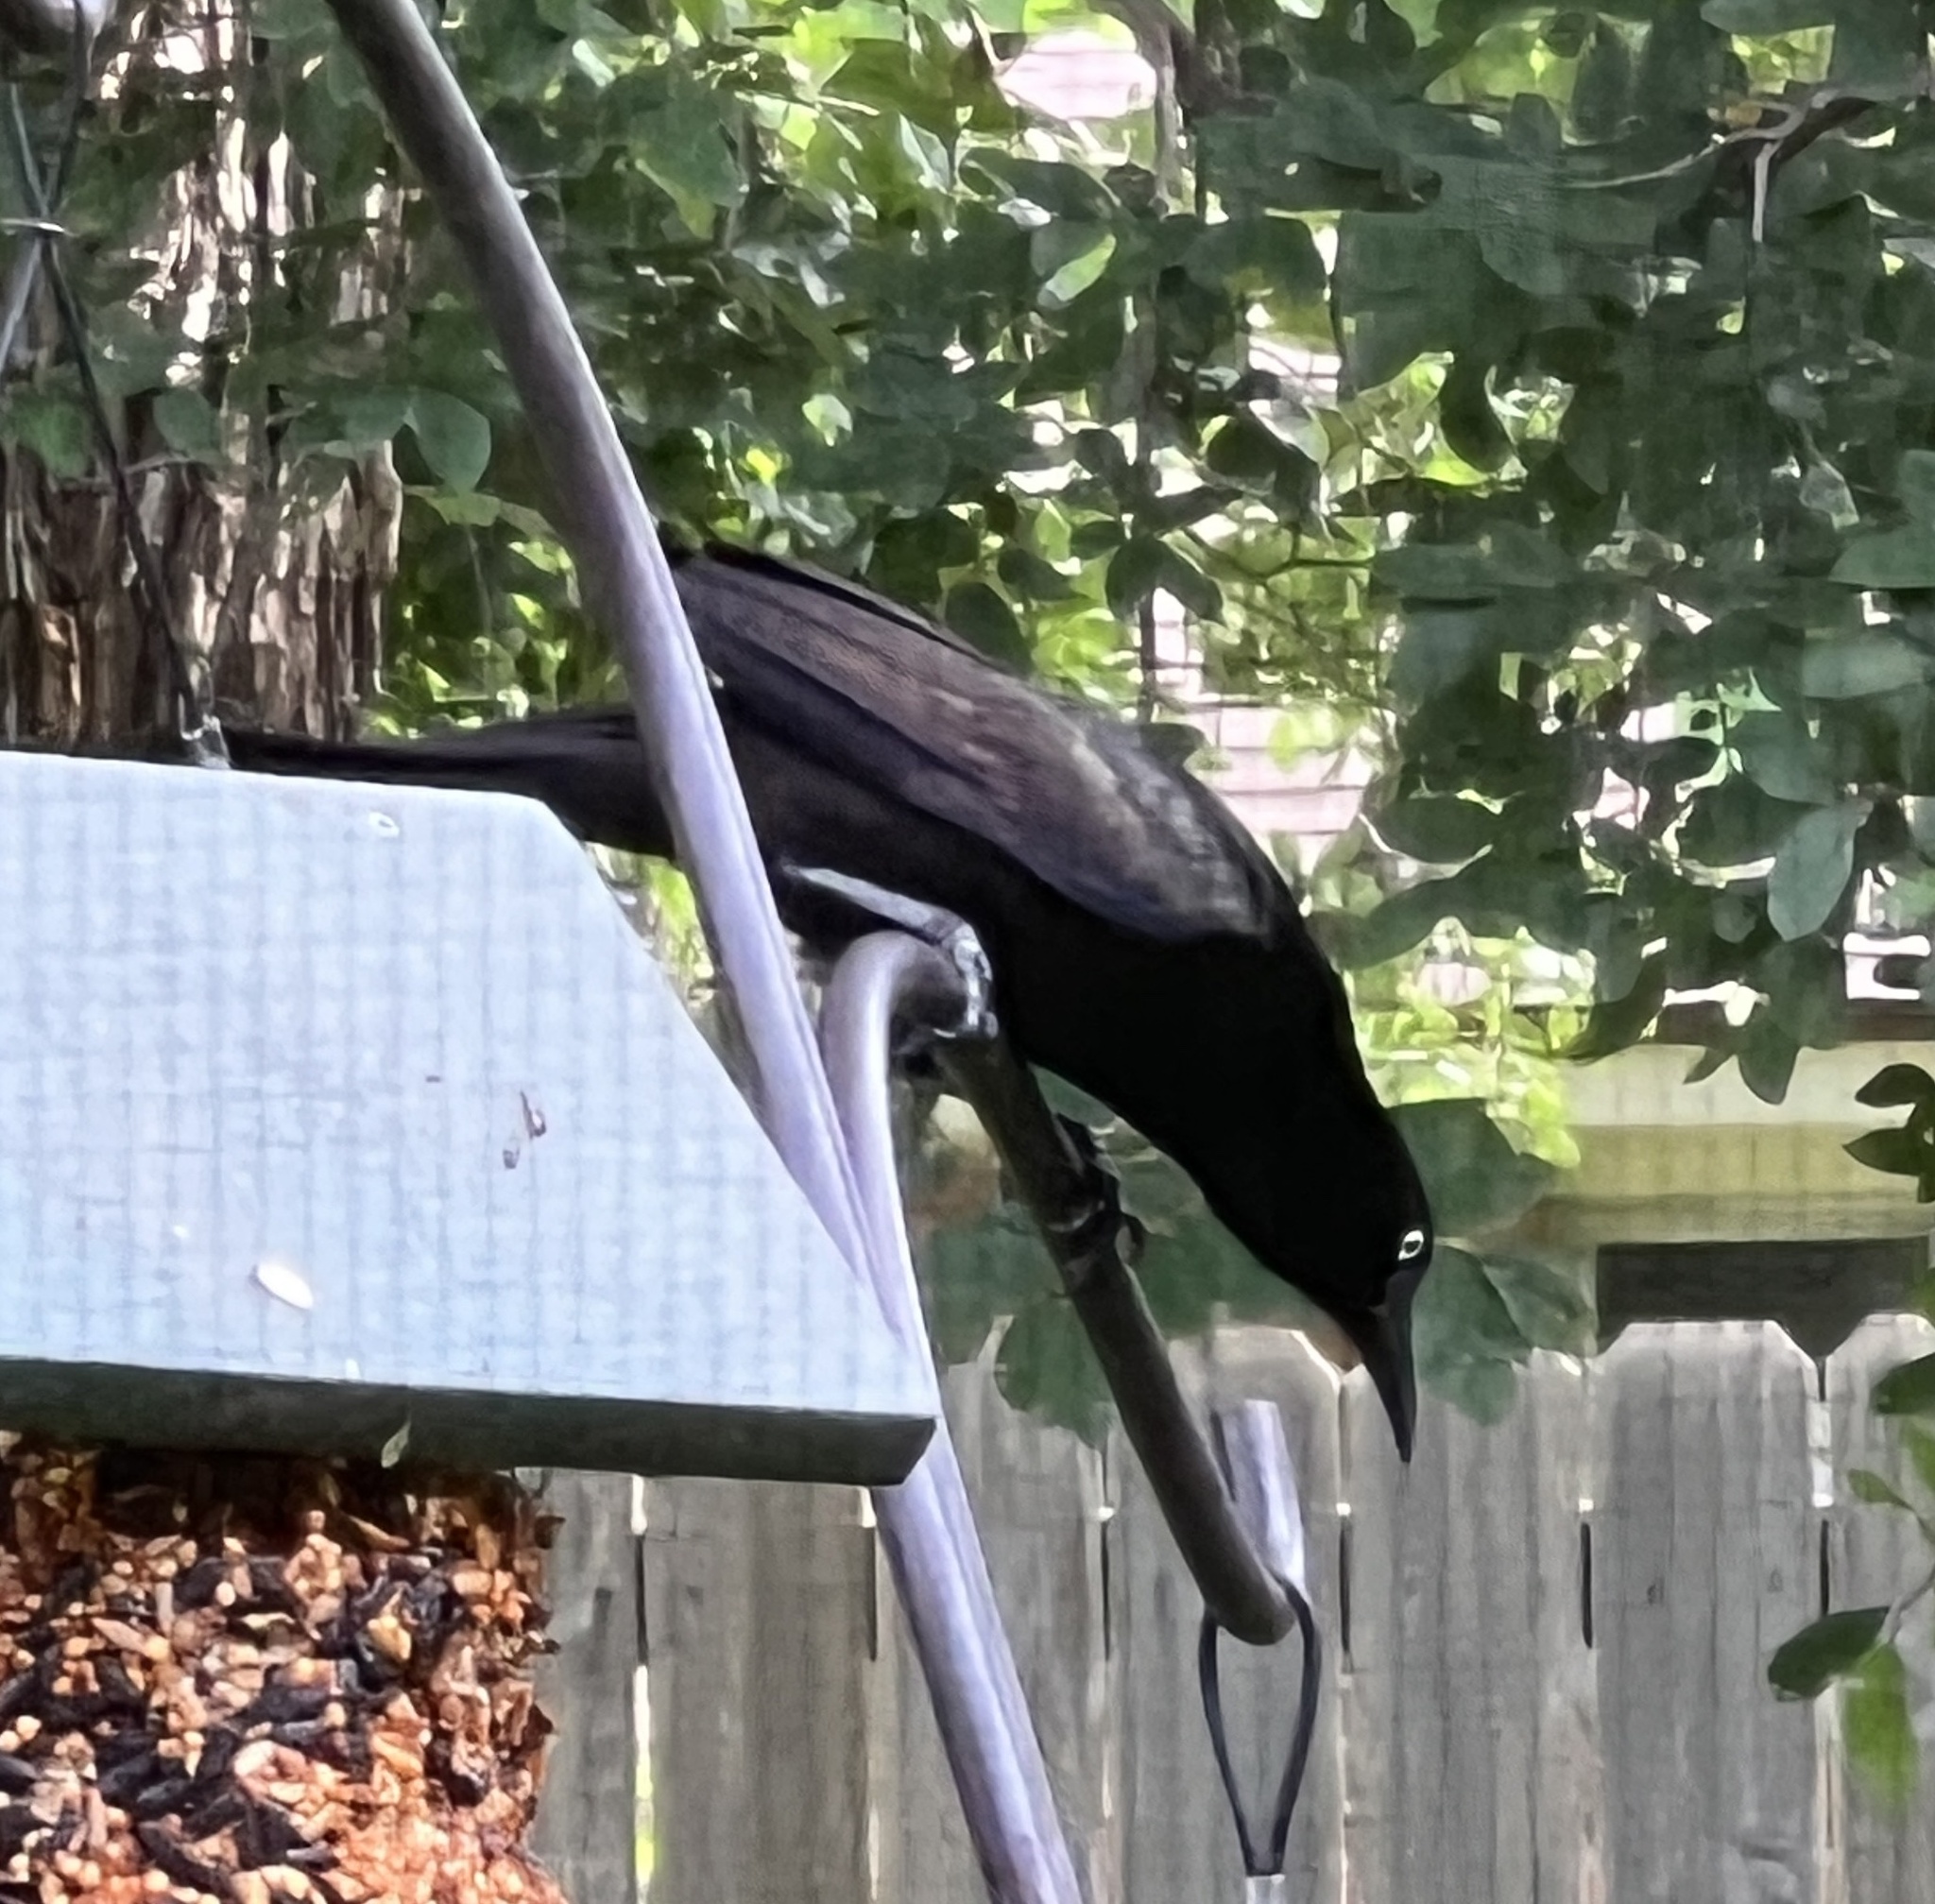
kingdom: Animalia
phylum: Chordata
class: Aves
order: Passeriformes
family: Icteridae
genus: Quiscalus
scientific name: Quiscalus quiscula
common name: Common grackle
